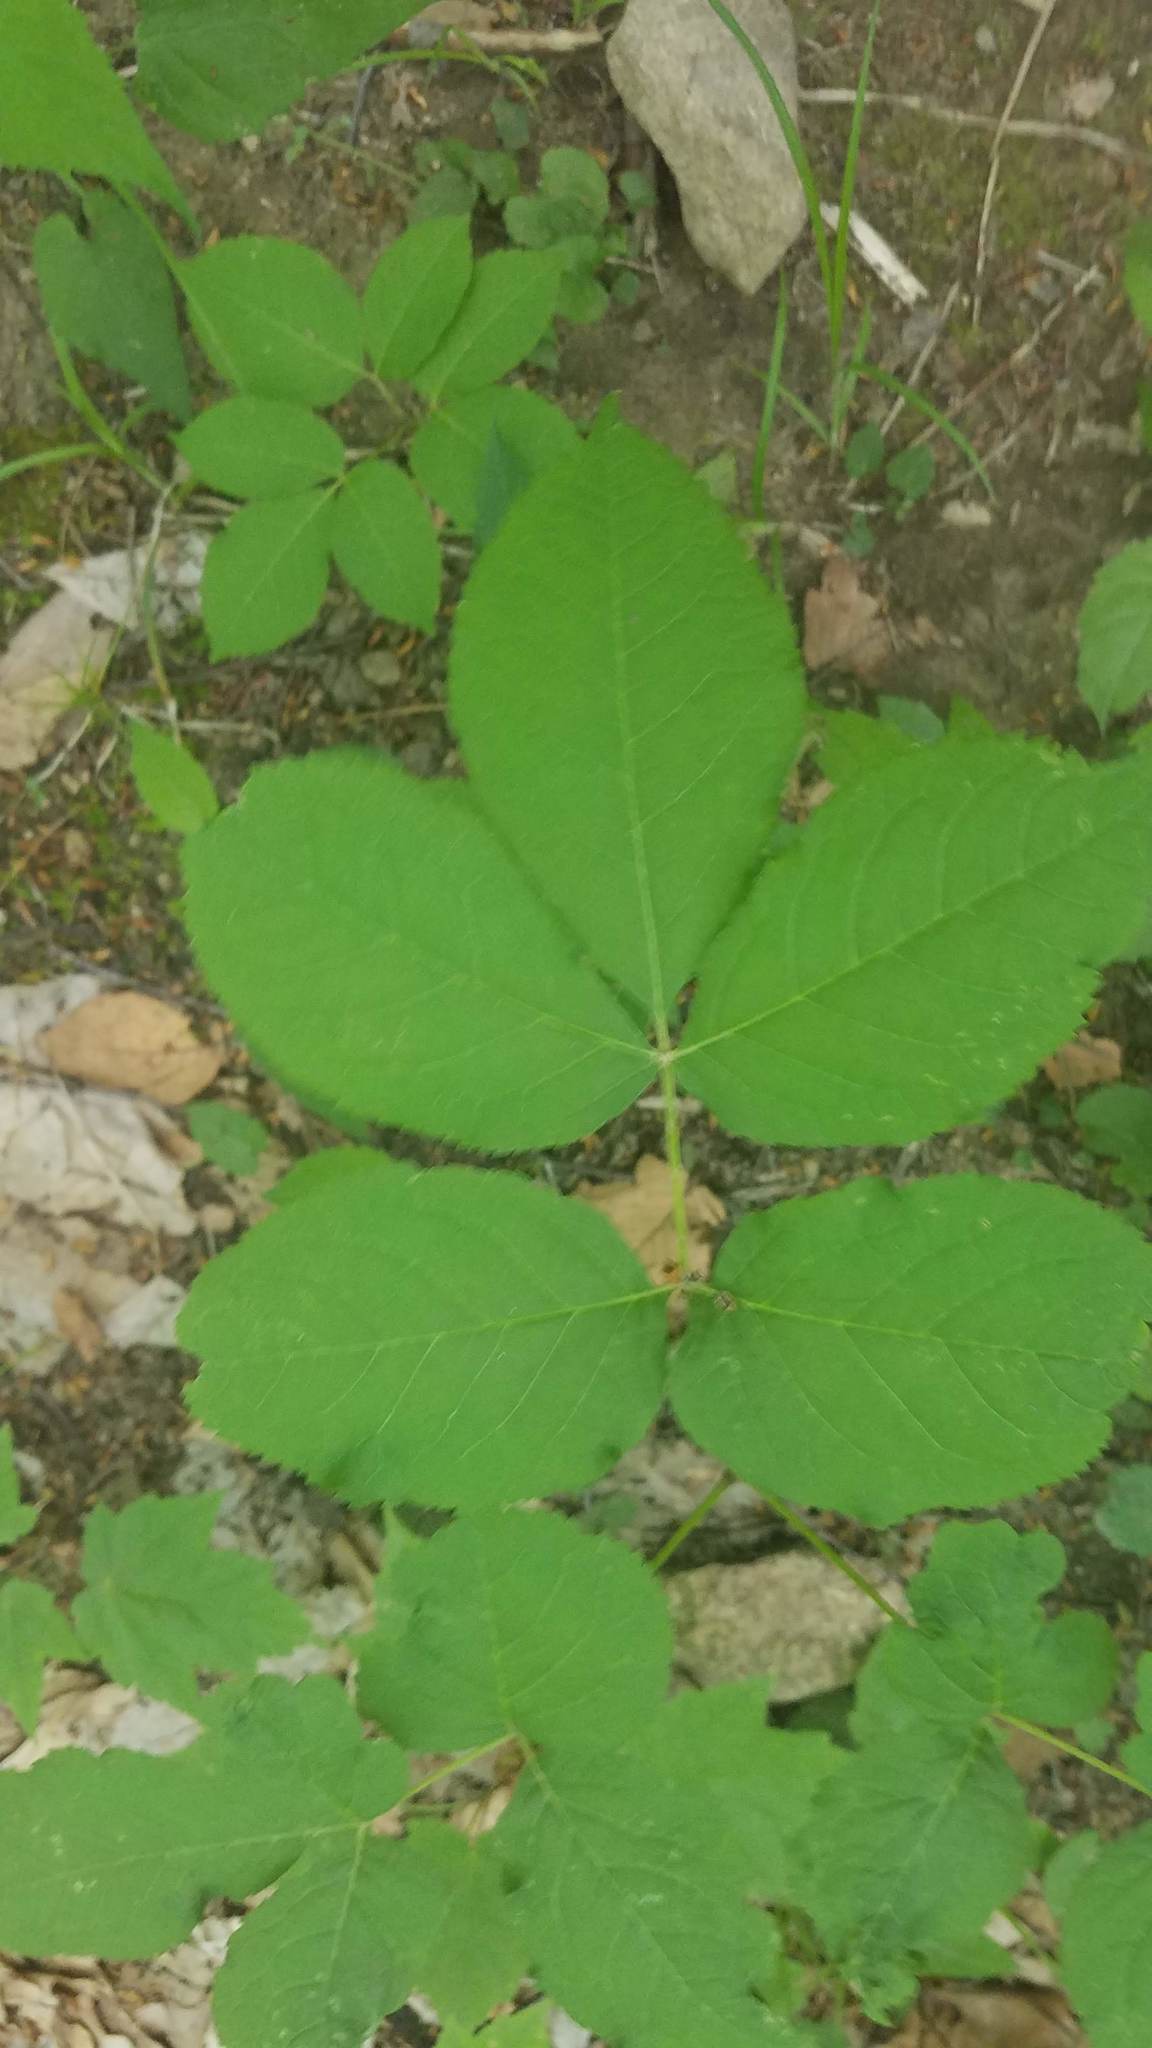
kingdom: Plantae
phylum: Tracheophyta
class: Magnoliopsida
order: Apiales
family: Araliaceae
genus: Aralia
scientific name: Aralia nudicaulis
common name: Wild sarsaparilla
